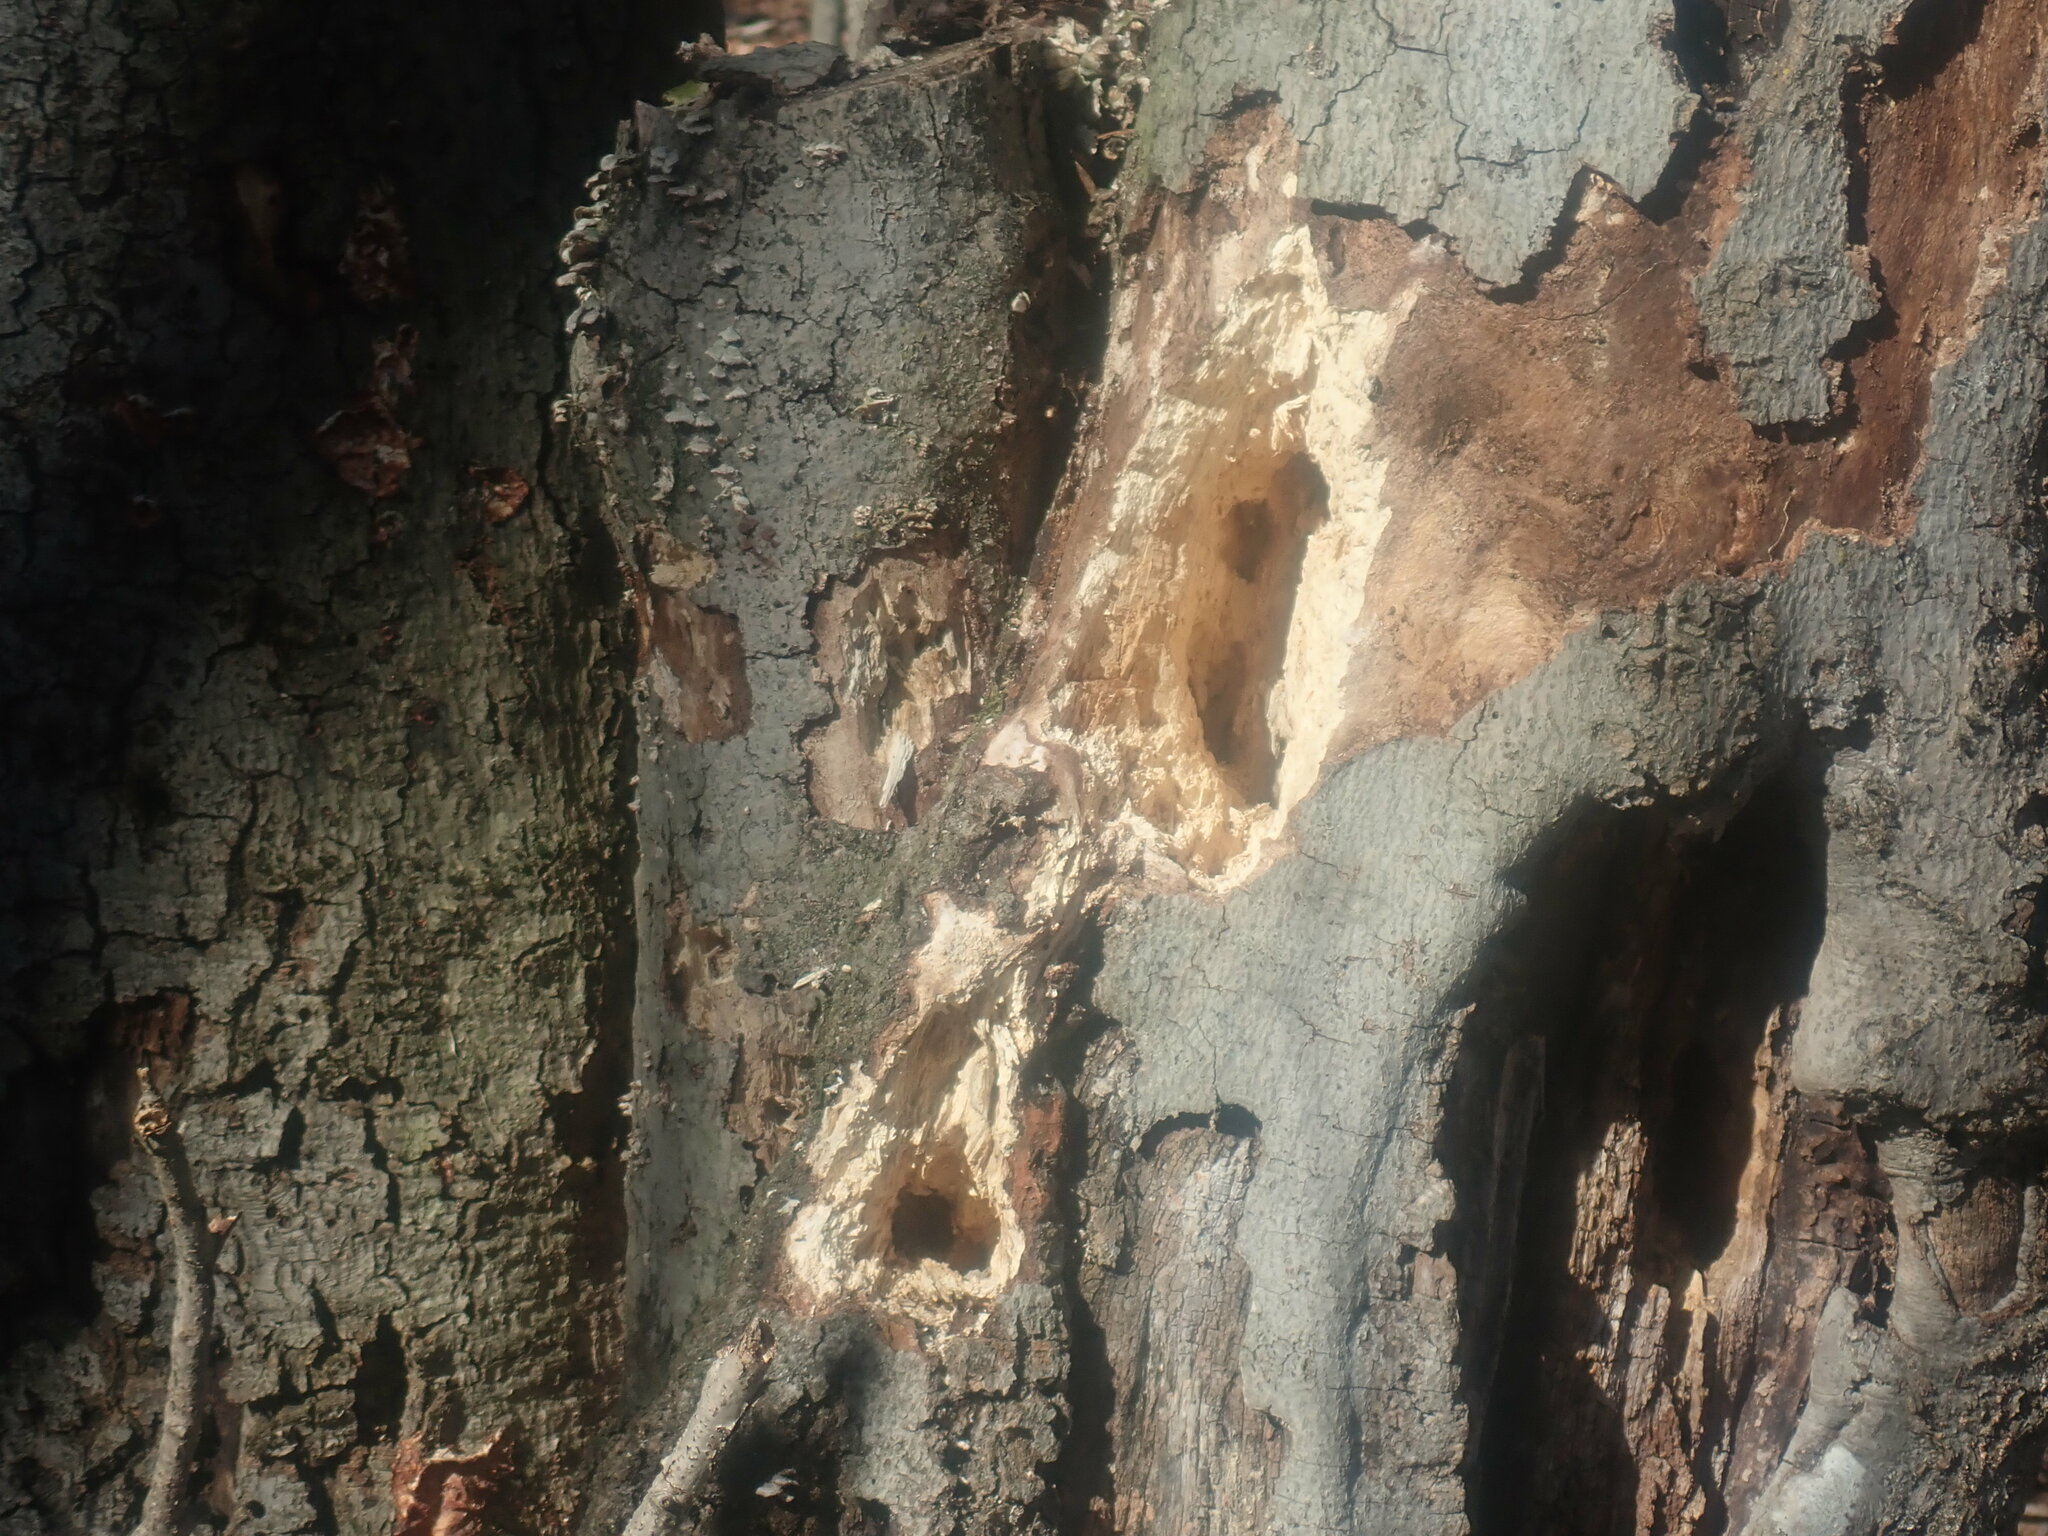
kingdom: Animalia
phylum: Chordata
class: Aves
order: Piciformes
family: Picidae
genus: Dryocopus
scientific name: Dryocopus pileatus
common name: Pileated woodpecker
